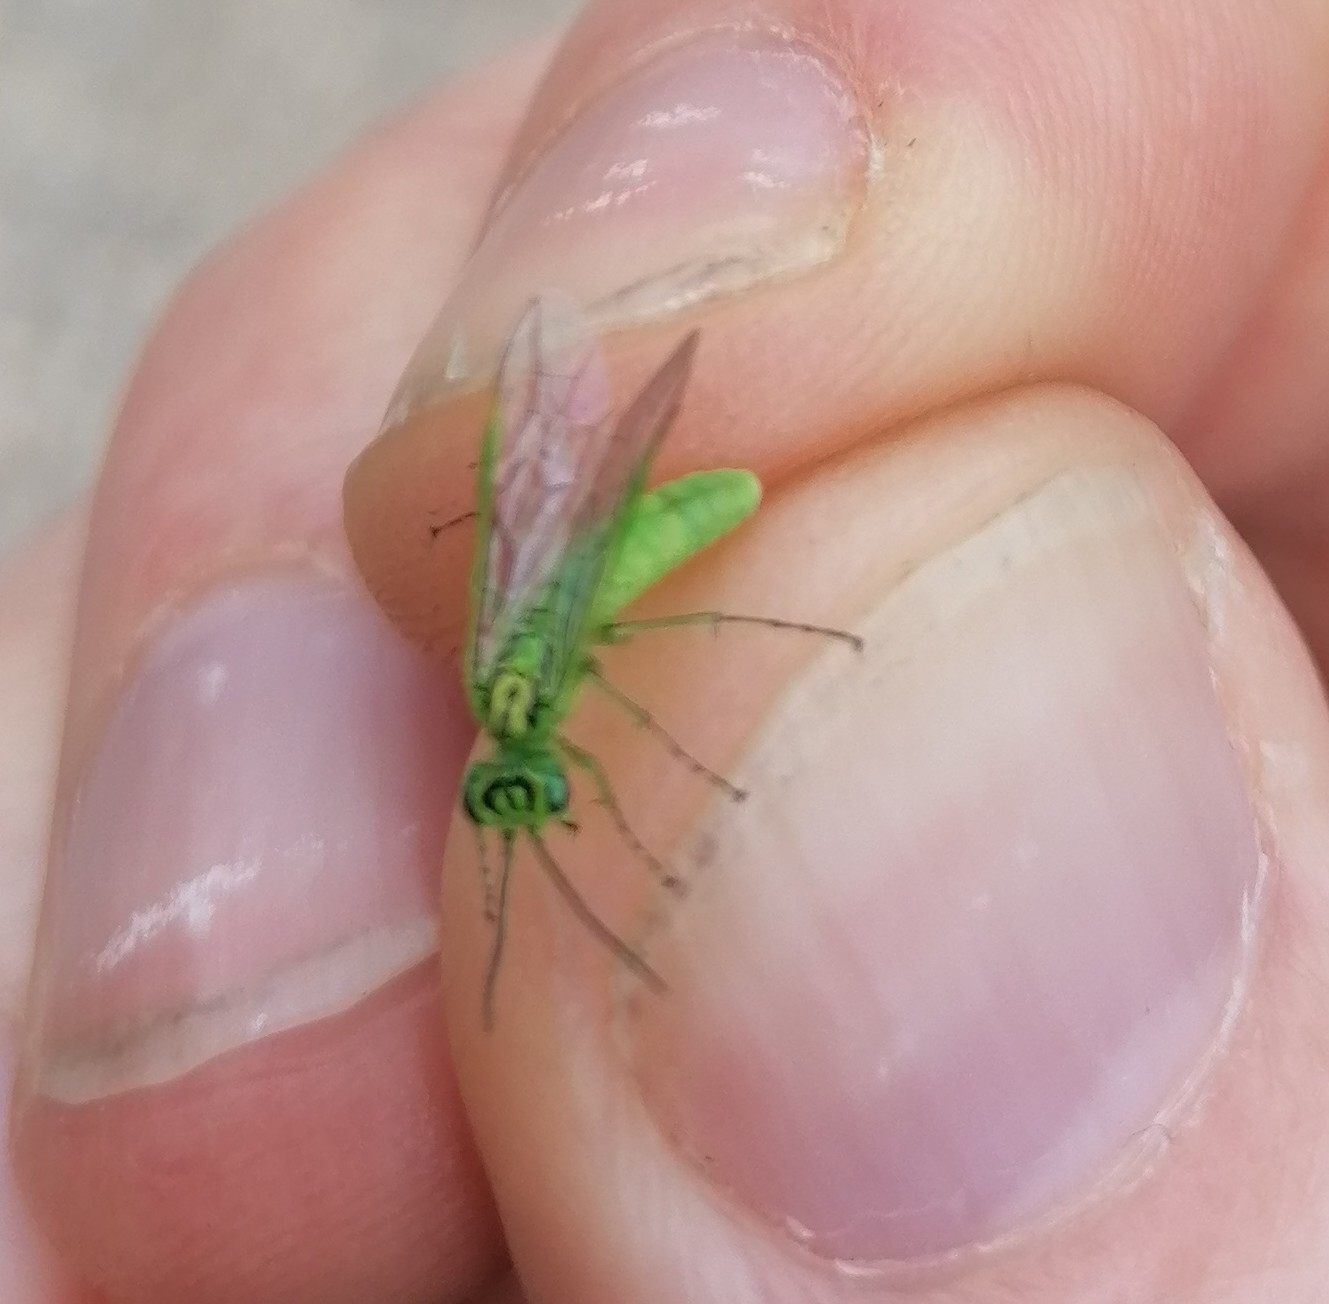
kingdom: Animalia
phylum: Arthropoda
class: Insecta
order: Hymenoptera
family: Tenthredinidae
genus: Rhogogaster
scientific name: Rhogogaster punctulata
